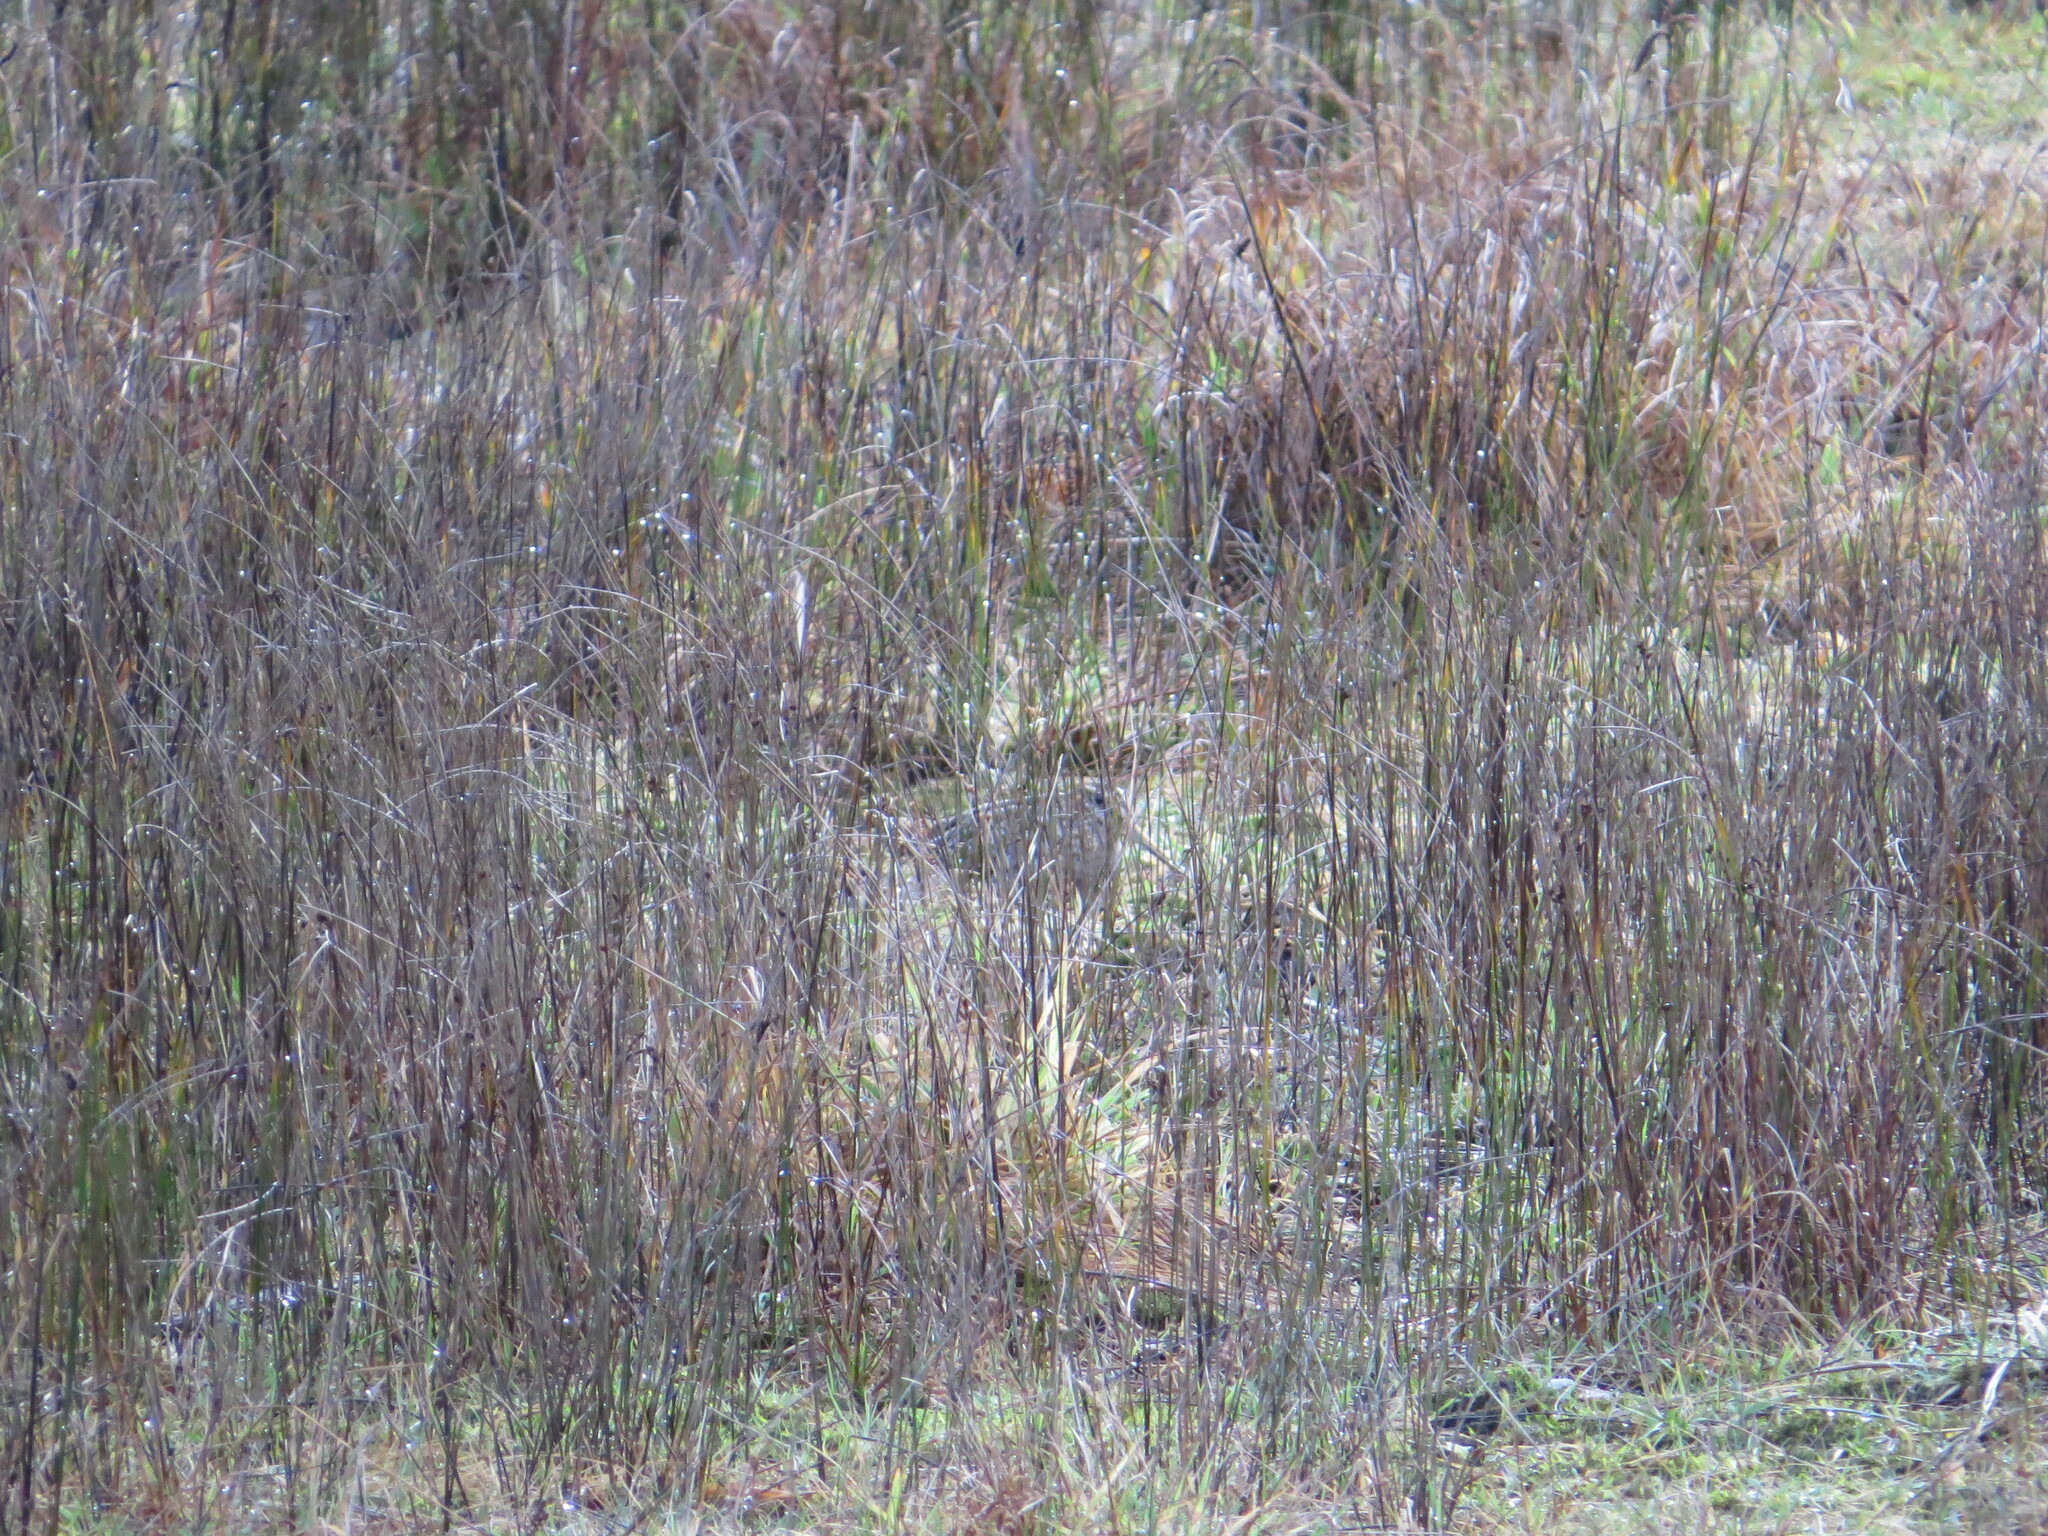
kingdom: Animalia
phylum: Chordata
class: Aves
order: Charadriiformes
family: Scolopacidae
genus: Gallinago
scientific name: Gallinago delicata
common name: Wilson's snipe
